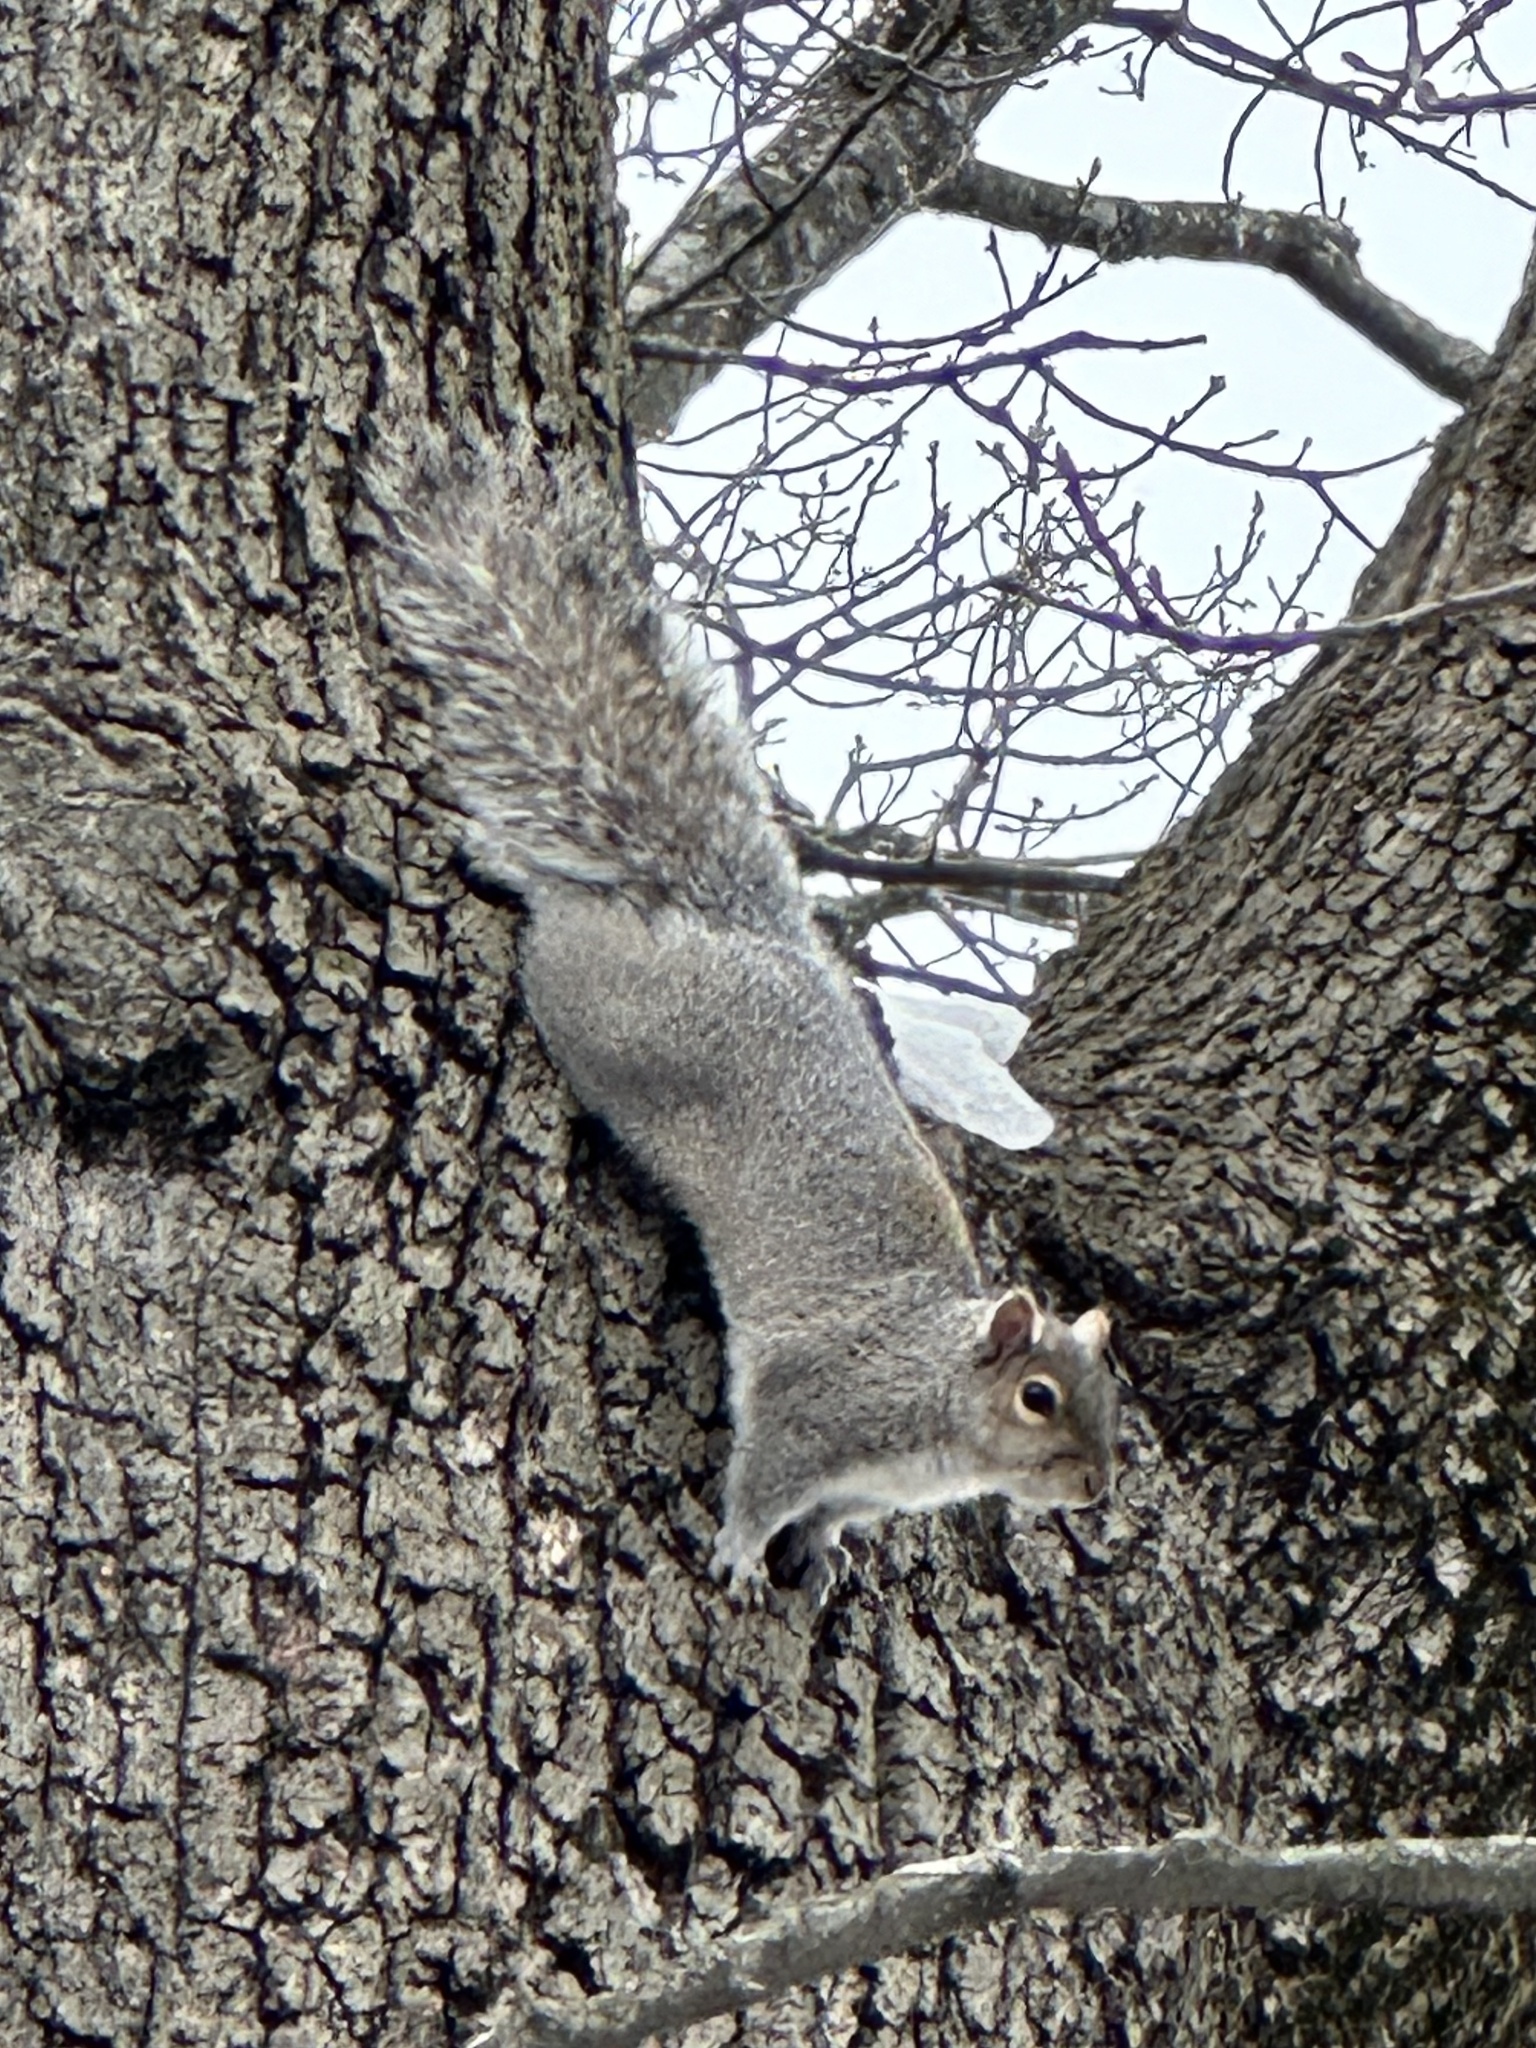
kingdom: Animalia
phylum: Chordata
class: Mammalia
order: Rodentia
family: Sciuridae
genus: Sciurus
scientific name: Sciurus carolinensis
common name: Eastern gray squirrel
